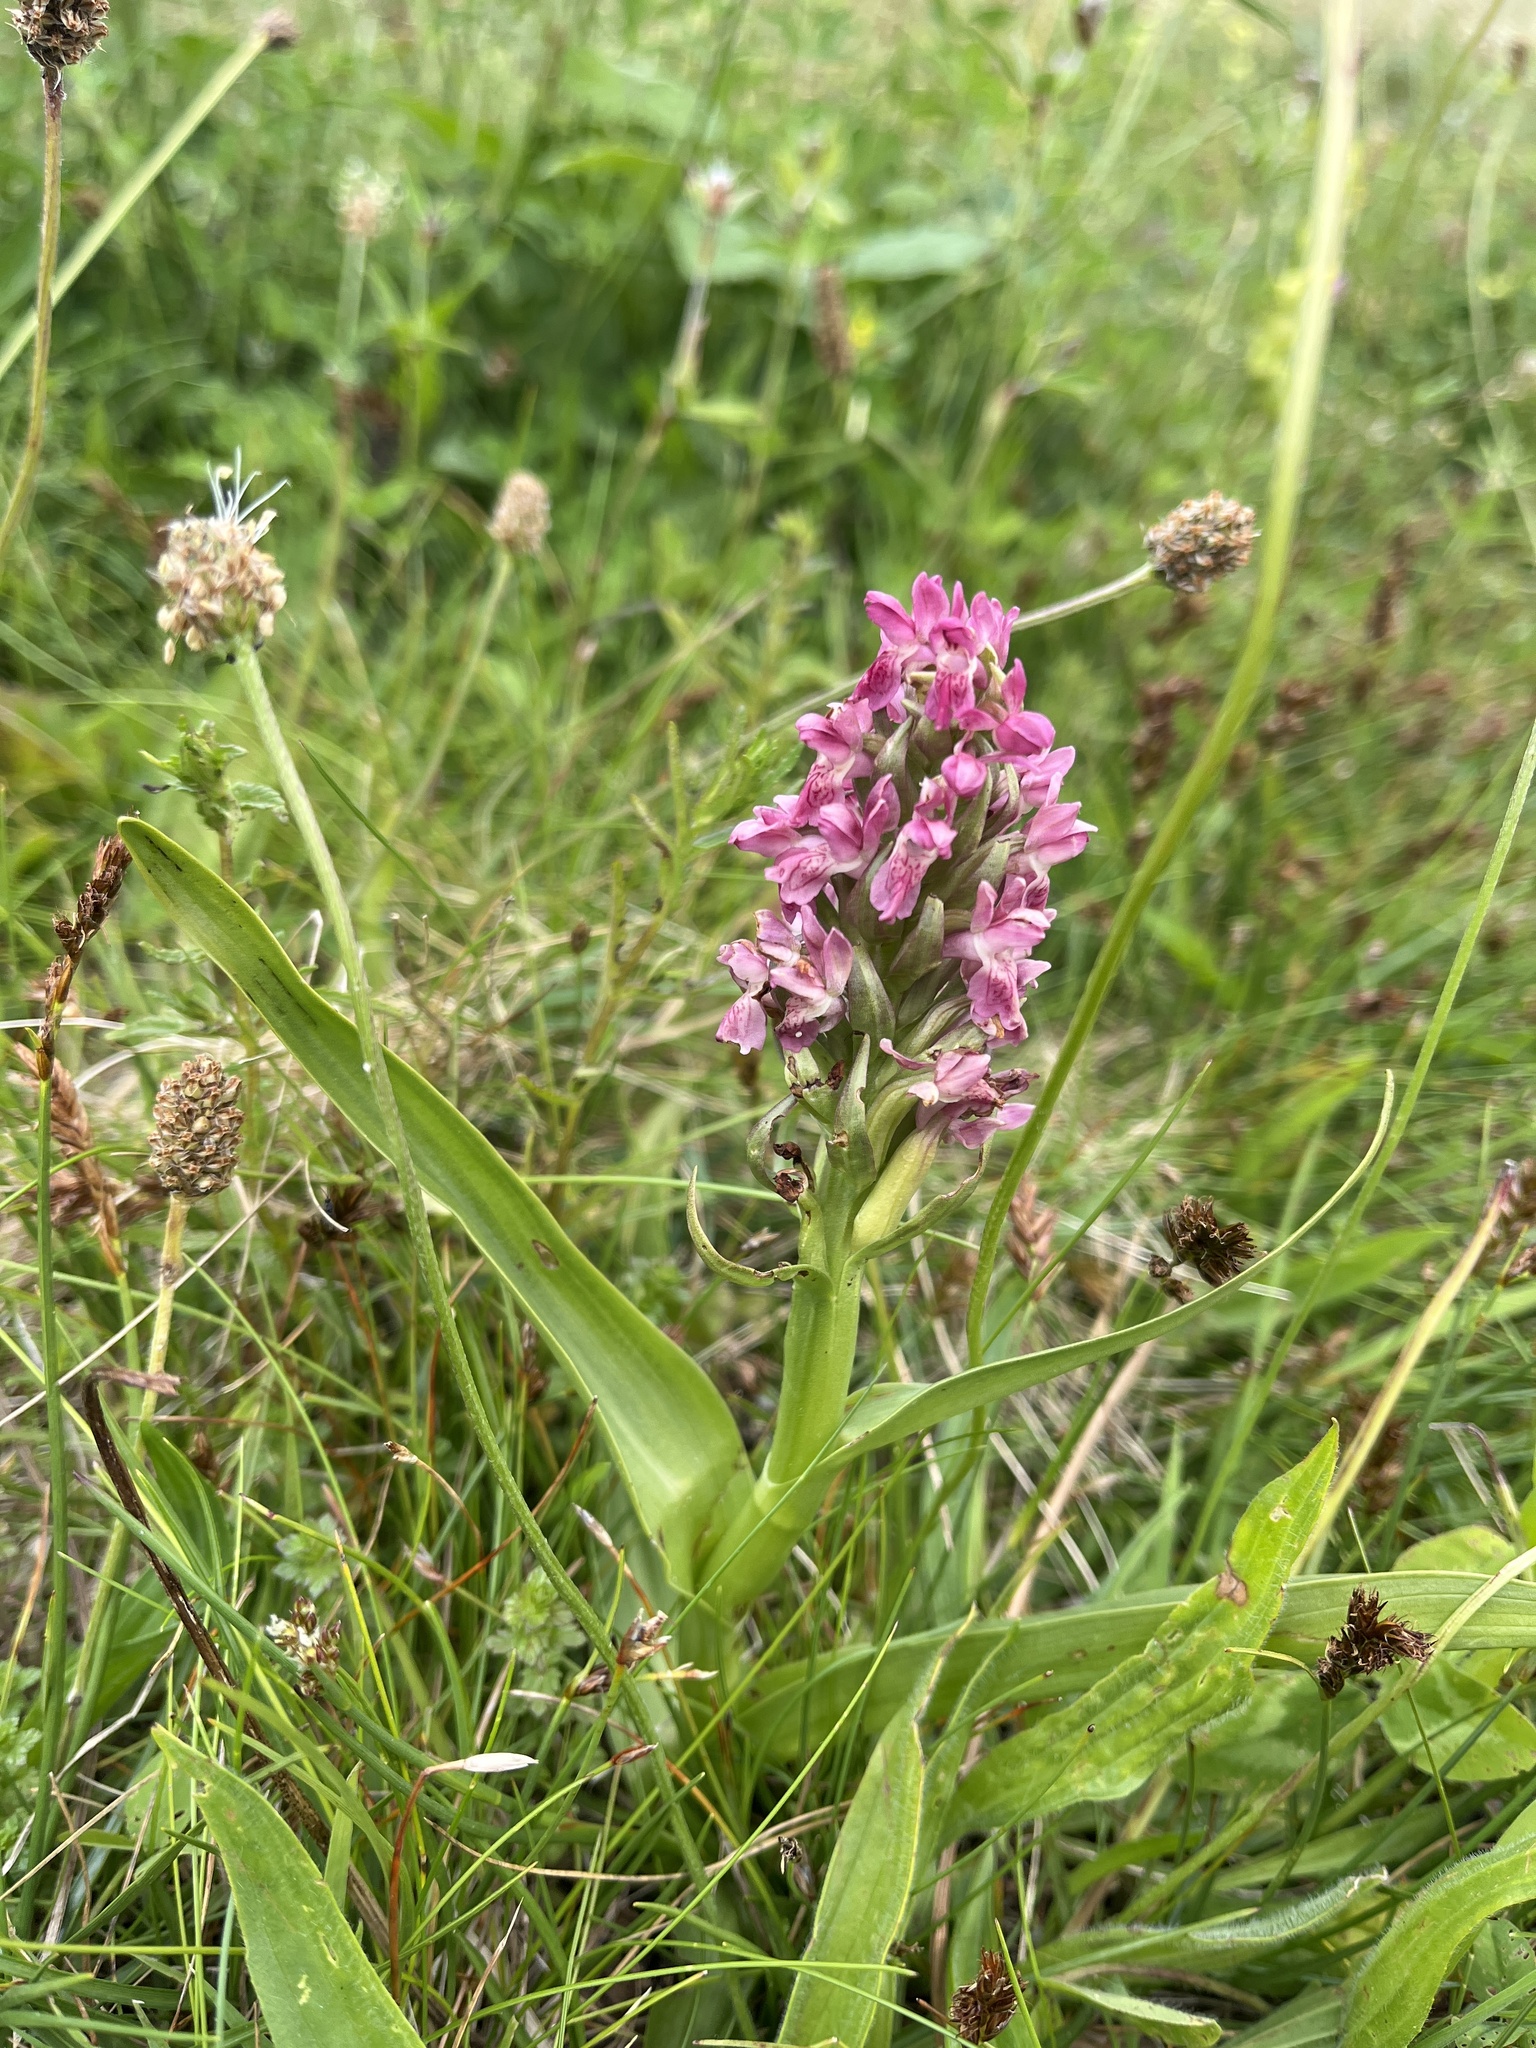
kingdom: Plantae
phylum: Tracheophyta
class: Liliopsida
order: Asparagales
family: Orchidaceae
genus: Dactylorhiza
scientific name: Dactylorhiza incarnata
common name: Early marsh-orchid
